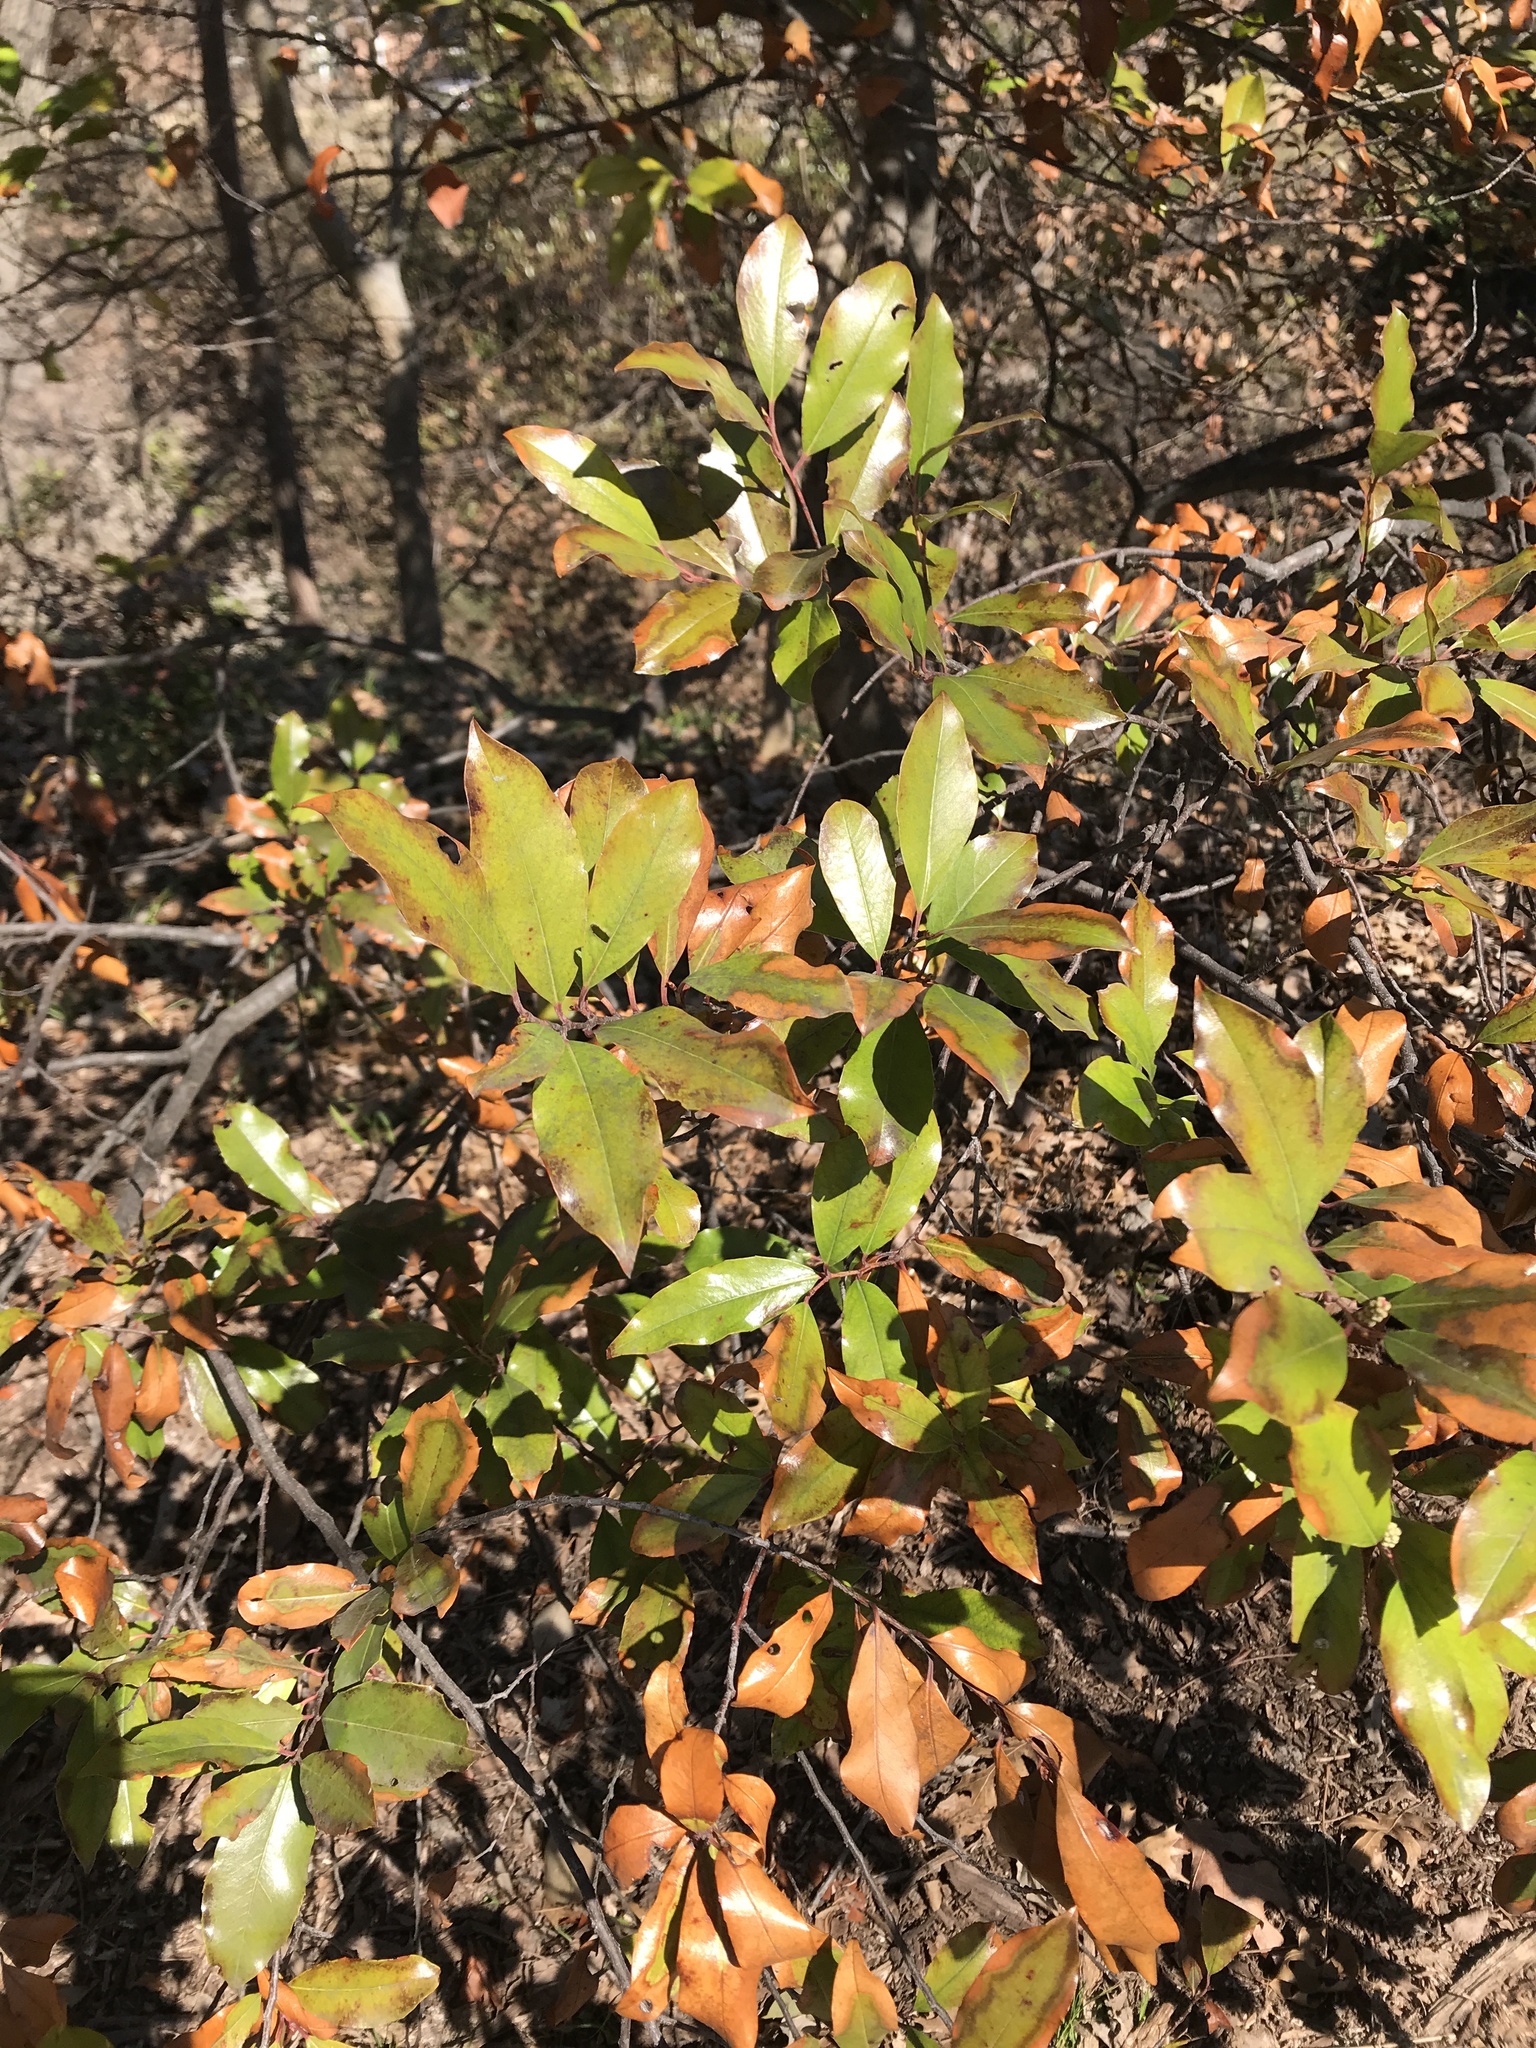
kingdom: Plantae
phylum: Tracheophyta
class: Magnoliopsida
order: Rosales
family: Rosaceae
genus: Prunus
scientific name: Prunus caroliniana
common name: Carolina laurel cherry
